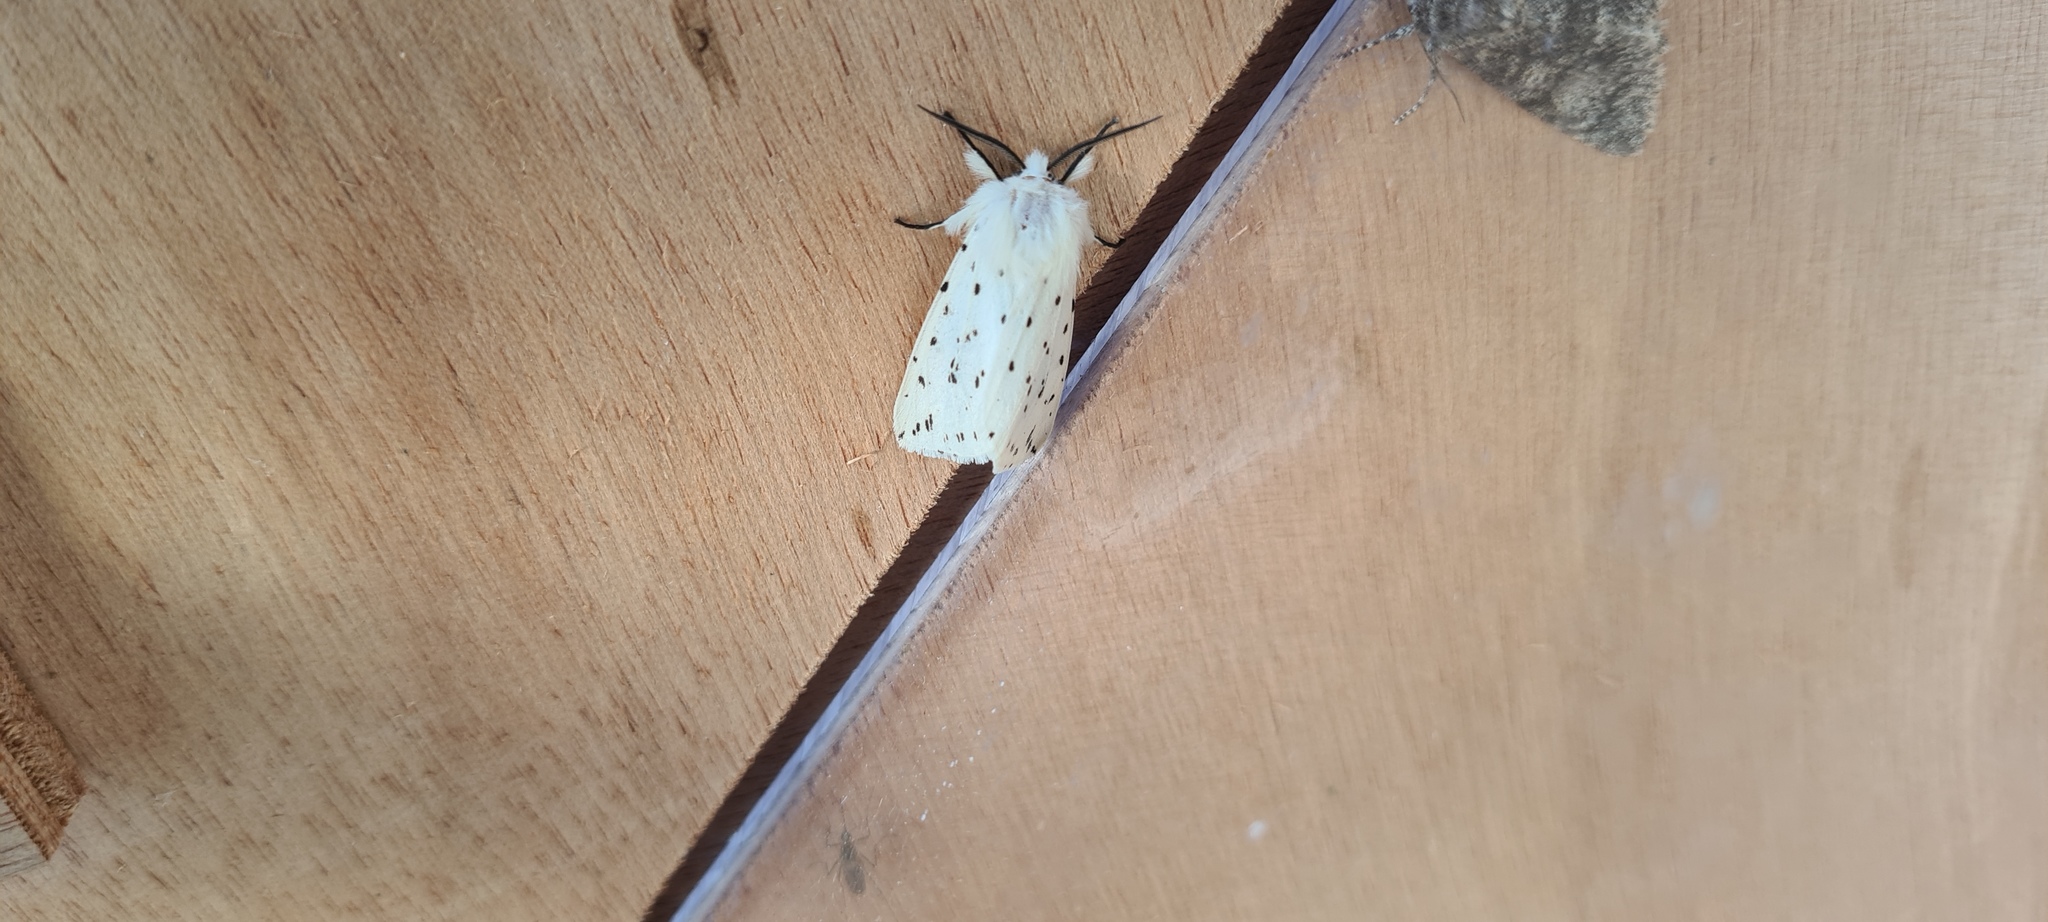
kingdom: Animalia
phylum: Arthropoda
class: Insecta
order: Lepidoptera
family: Erebidae
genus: Spilosoma
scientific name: Spilosoma lubricipeda
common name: White ermine
